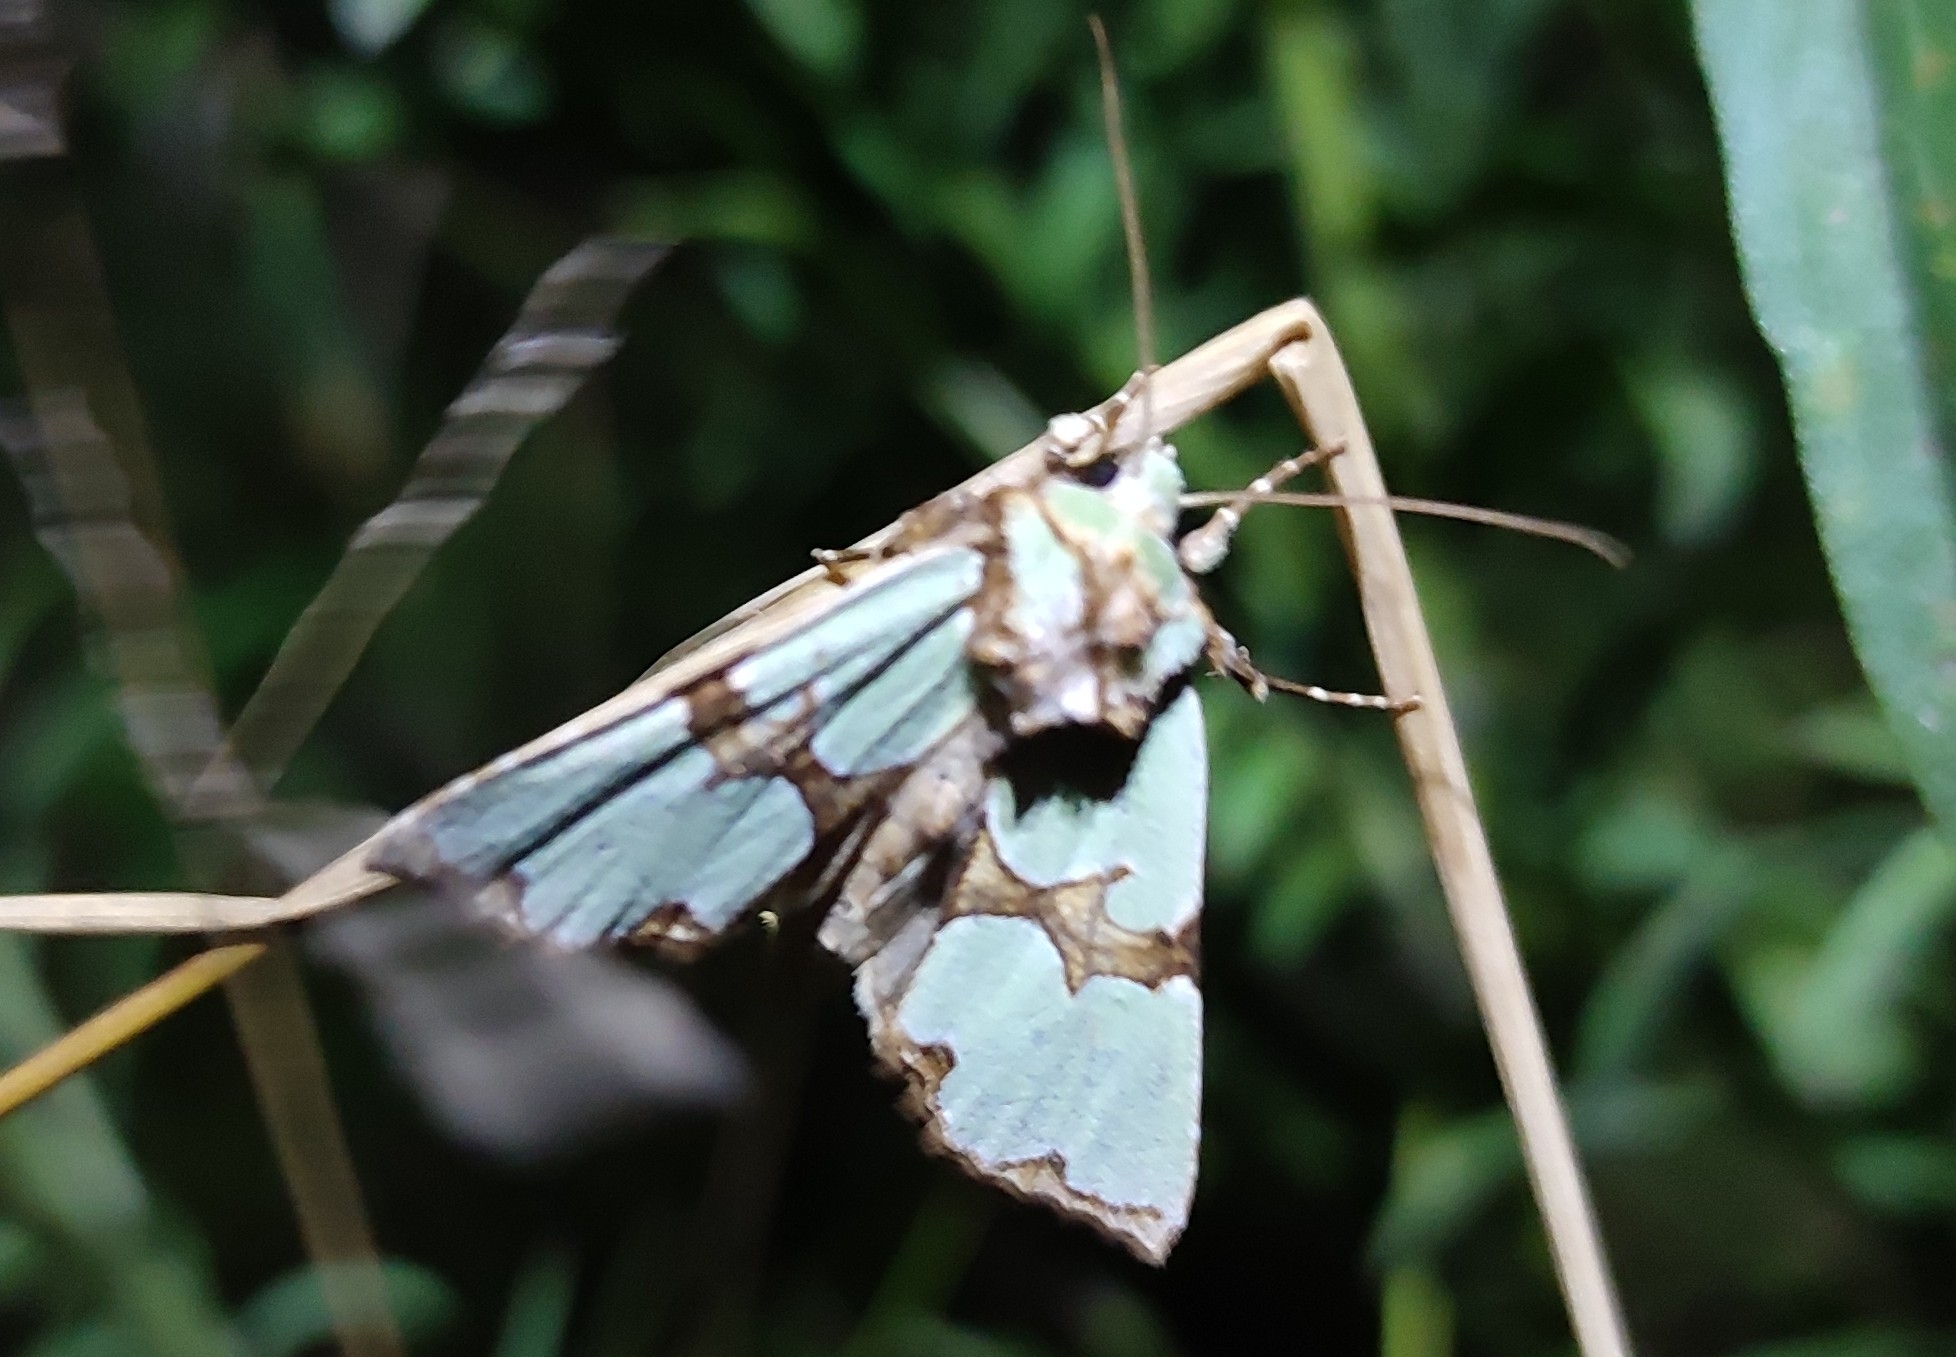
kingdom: Animalia
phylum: Arthropoda
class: Insecta
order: Lepidoptera
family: Noctuidae
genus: Staurophora
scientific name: Staurophora celsia
